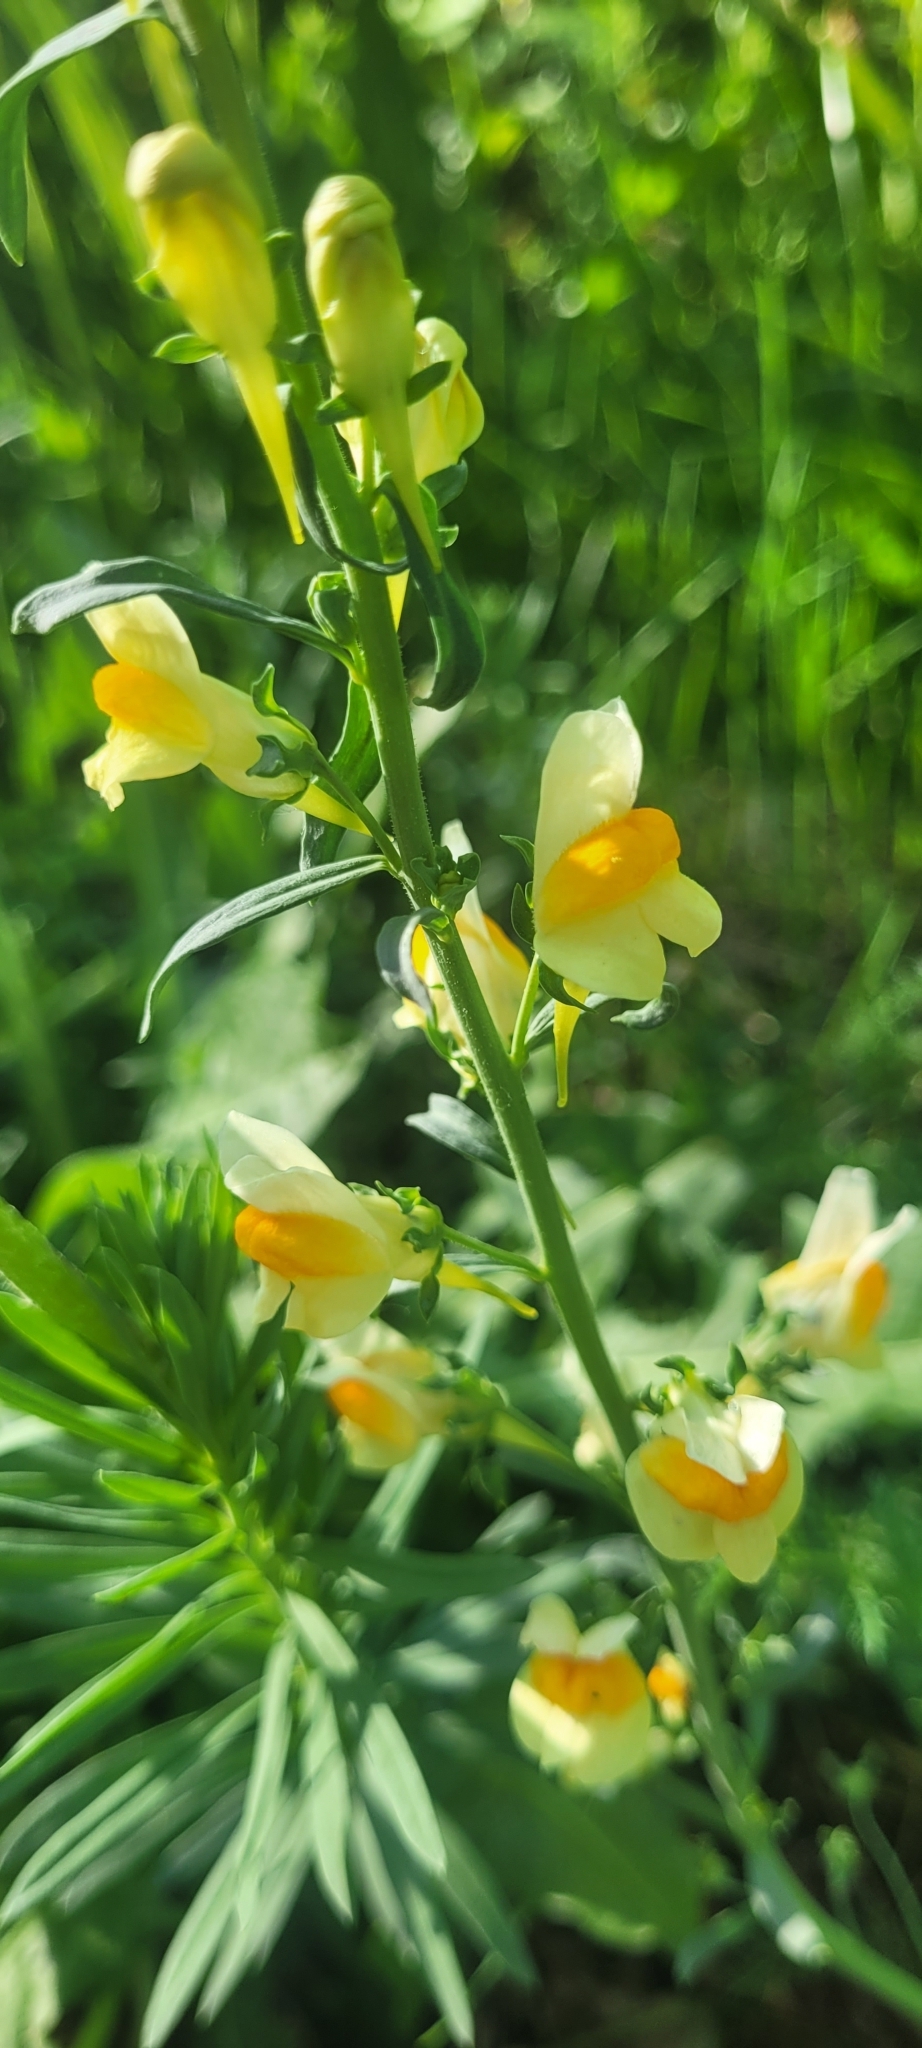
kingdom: Plantae
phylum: Tracheophyta
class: Magnoliopsida
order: Lamiales
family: Plantaginaceae
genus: Linaria
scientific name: Linaria vulgaris
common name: Butter and eggs
